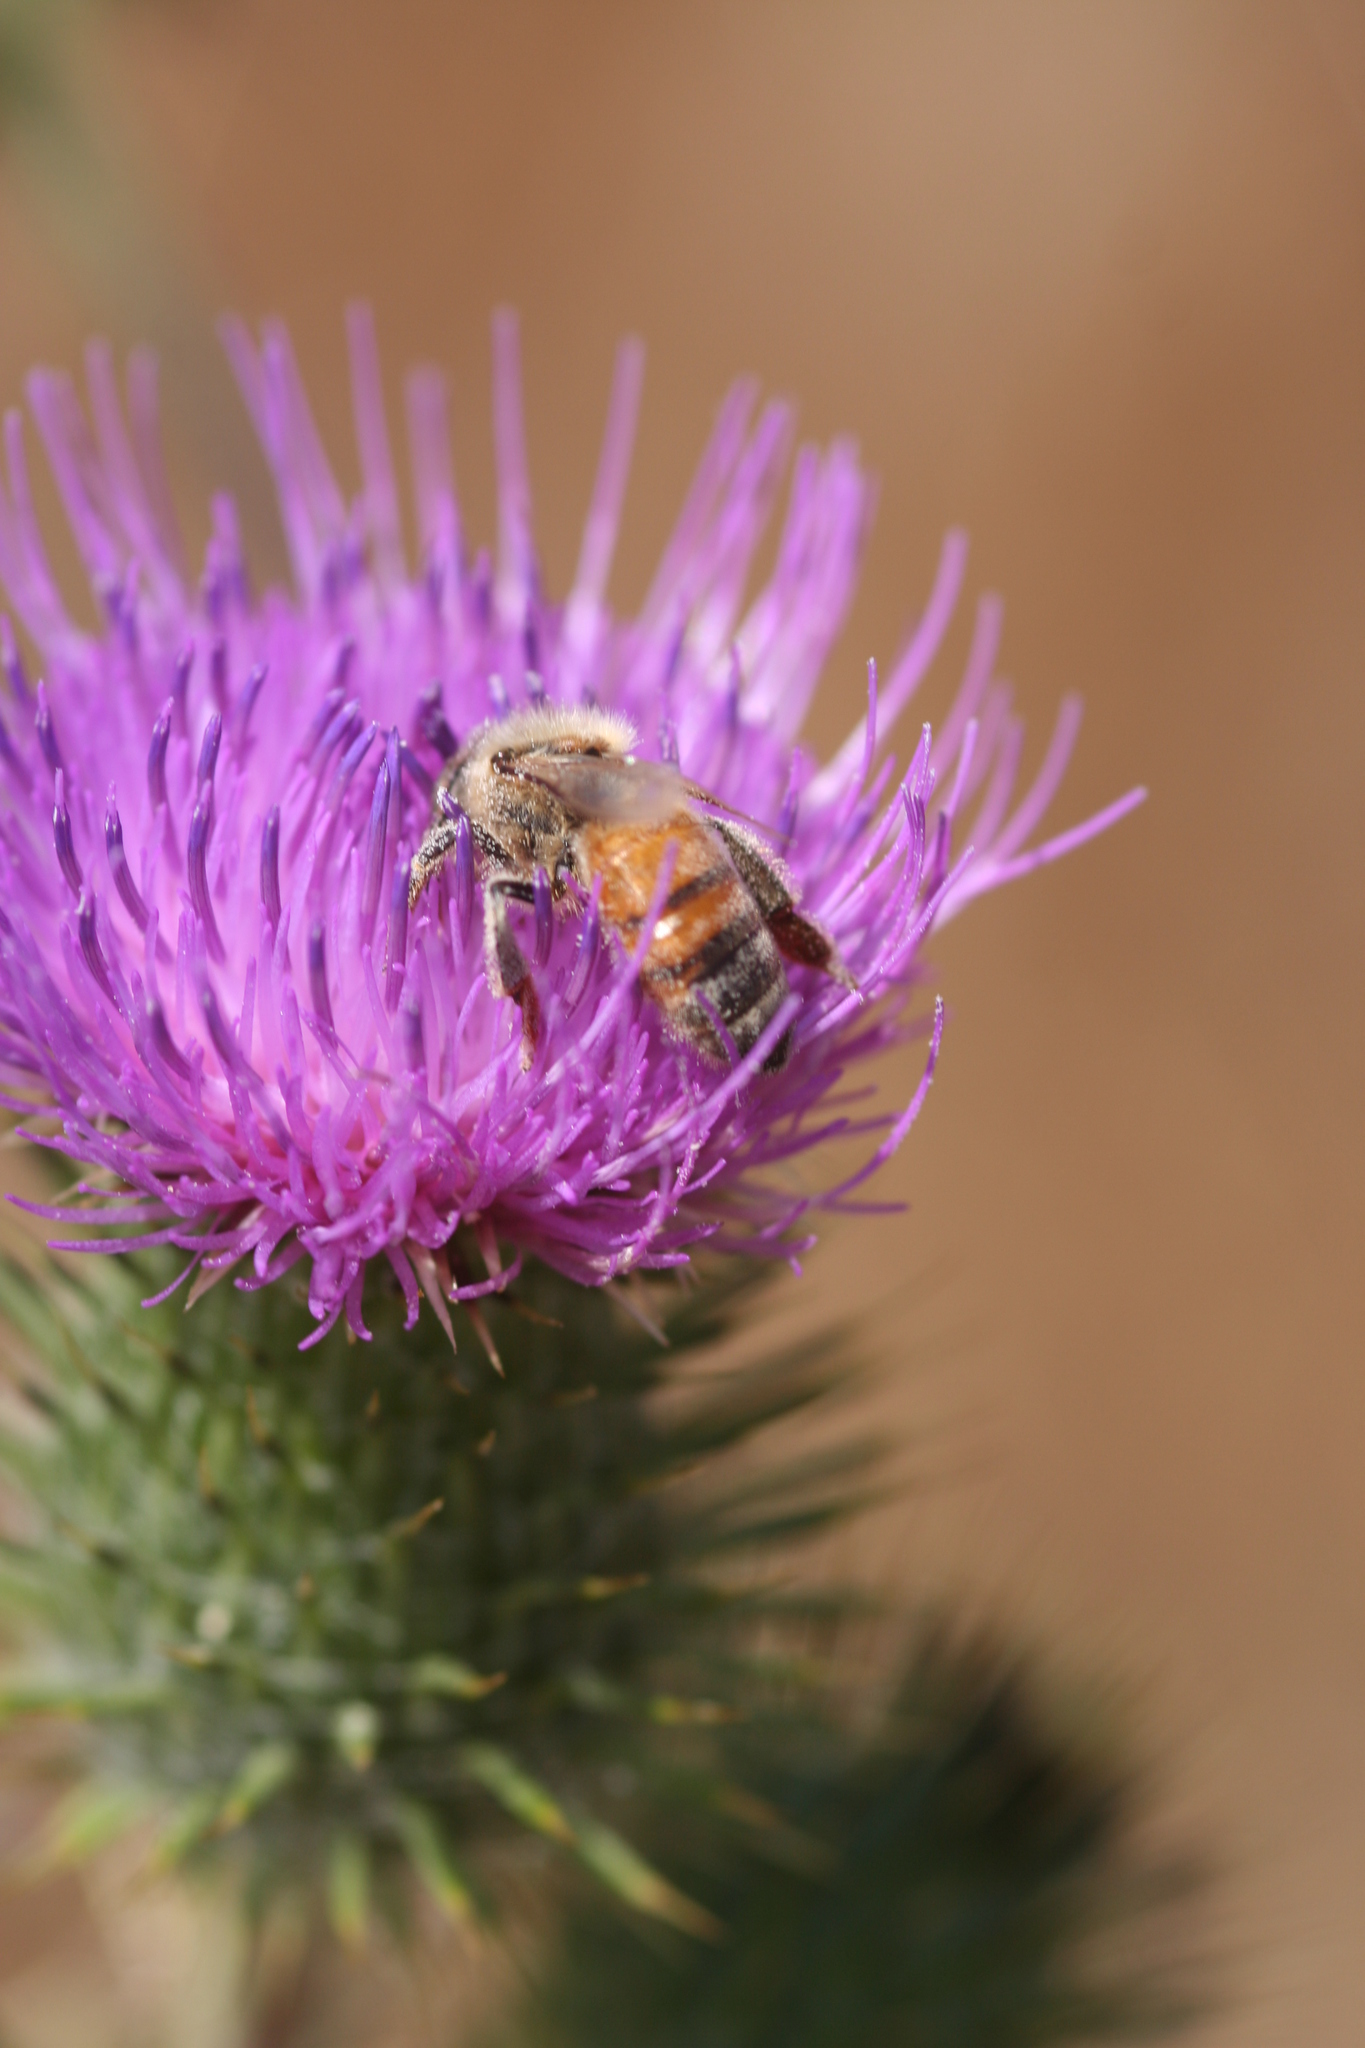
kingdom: Animalia
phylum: Arthropoda
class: Insecta
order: Hymenoptera
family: Apidae
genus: Apis
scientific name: Apis mellifera
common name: Honey bee
